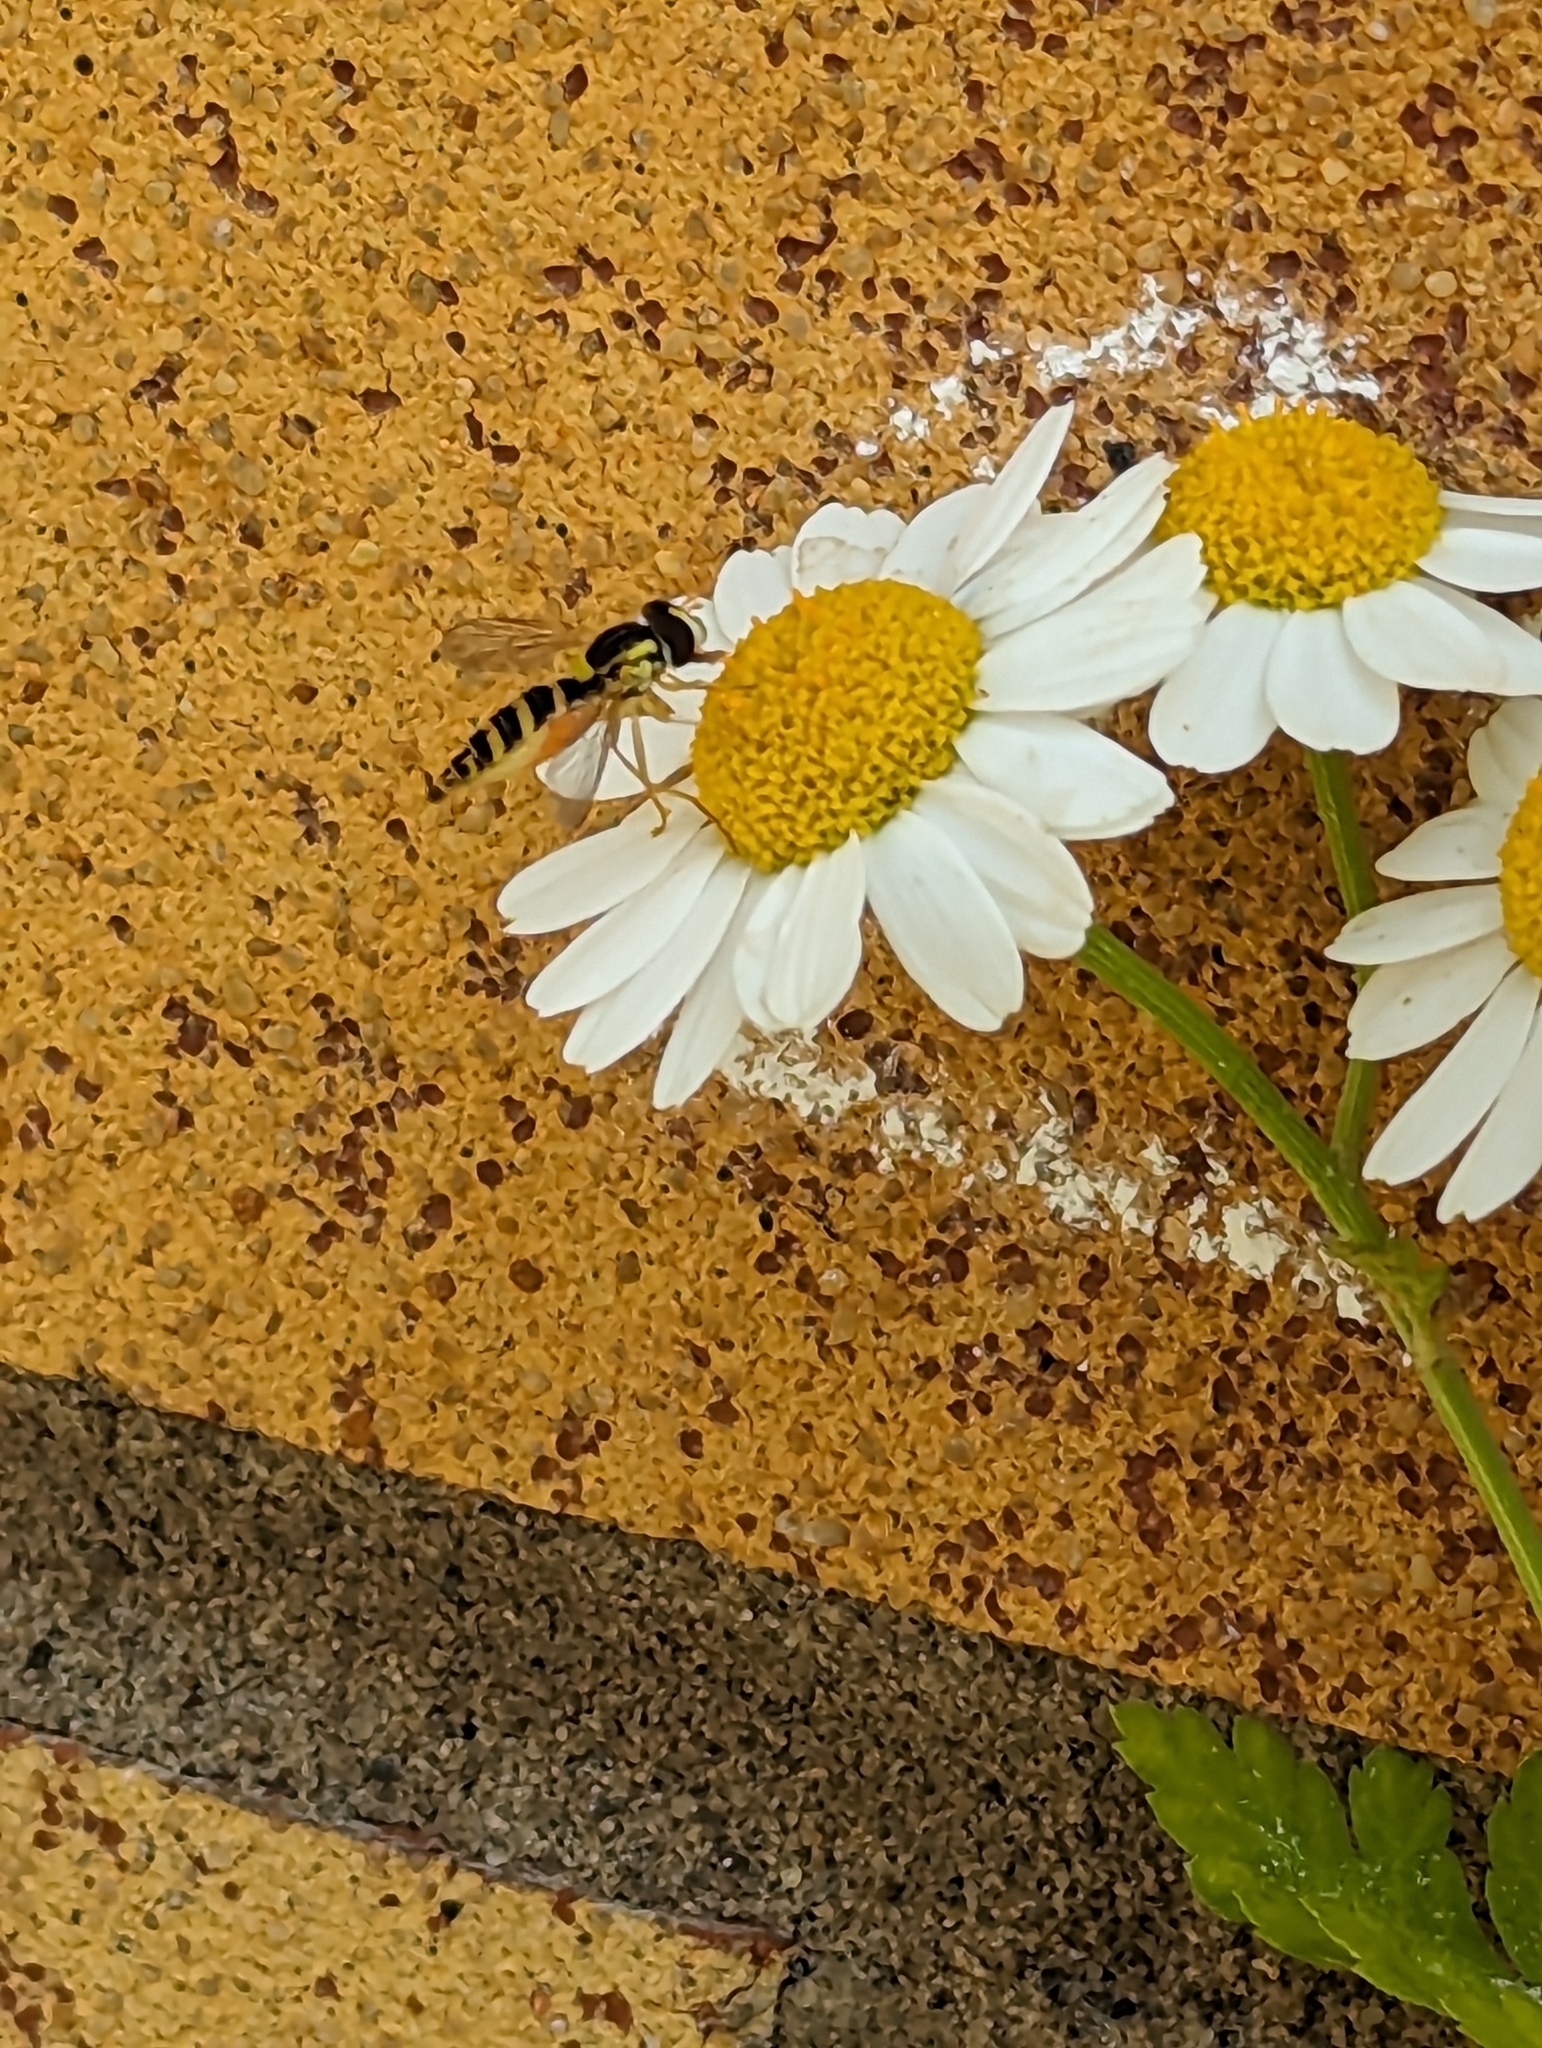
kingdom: Animalia
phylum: Arthropoda
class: Insecta
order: Diptera
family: Syrphidae
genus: Sphaerophoria
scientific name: Sphaerophoria
